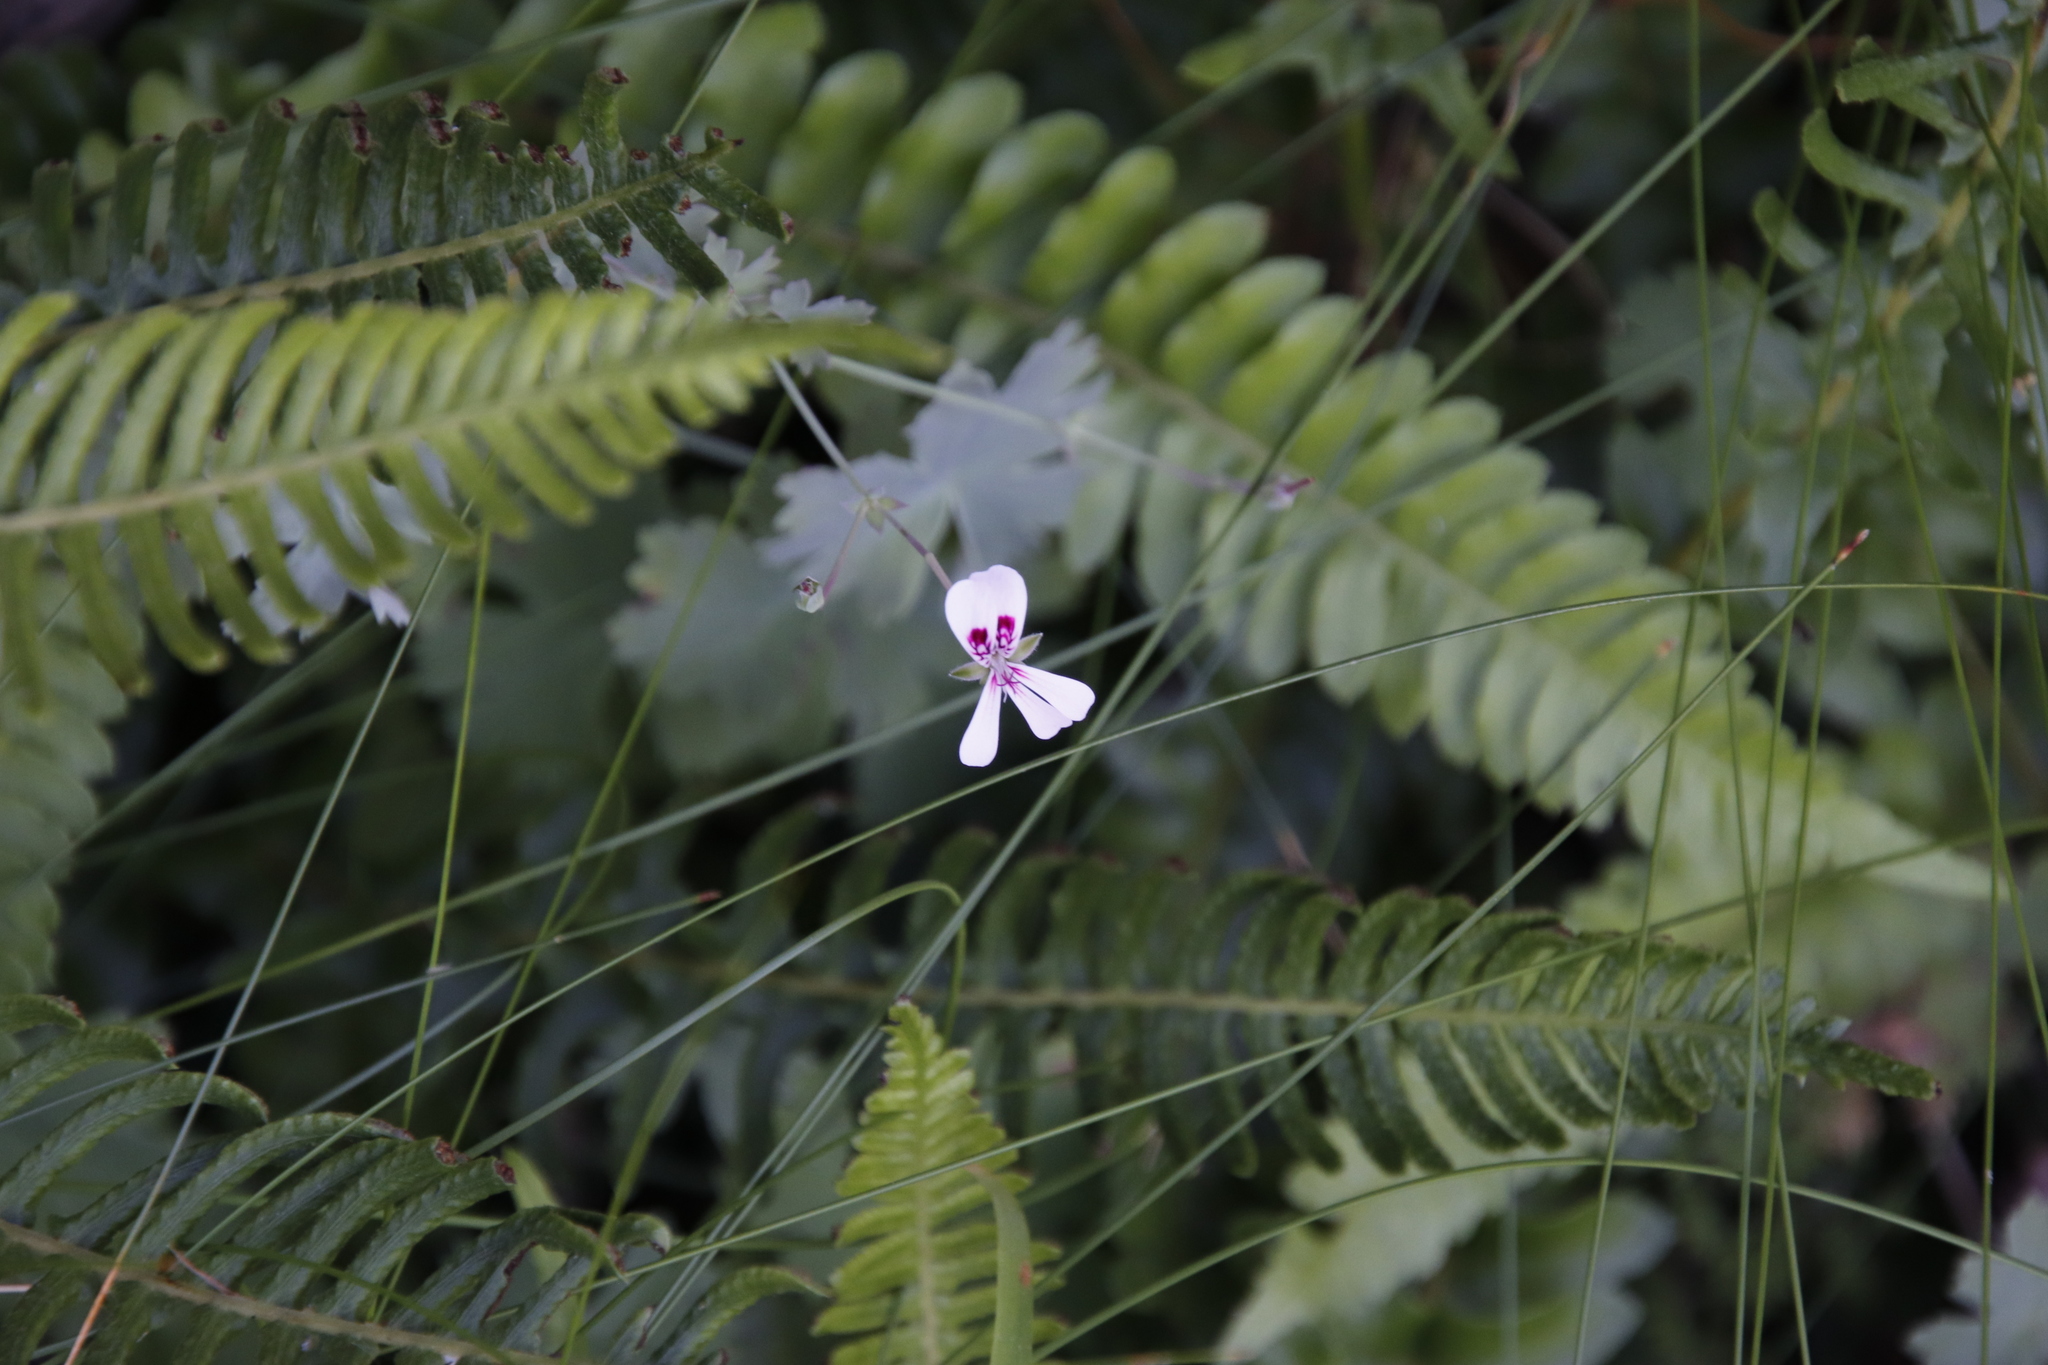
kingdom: Plantae
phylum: Tracheophyta
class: Magnoliopsida
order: Geraniales
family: Geraniaceae
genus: Pelargonium
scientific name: Pelargonium patulum
